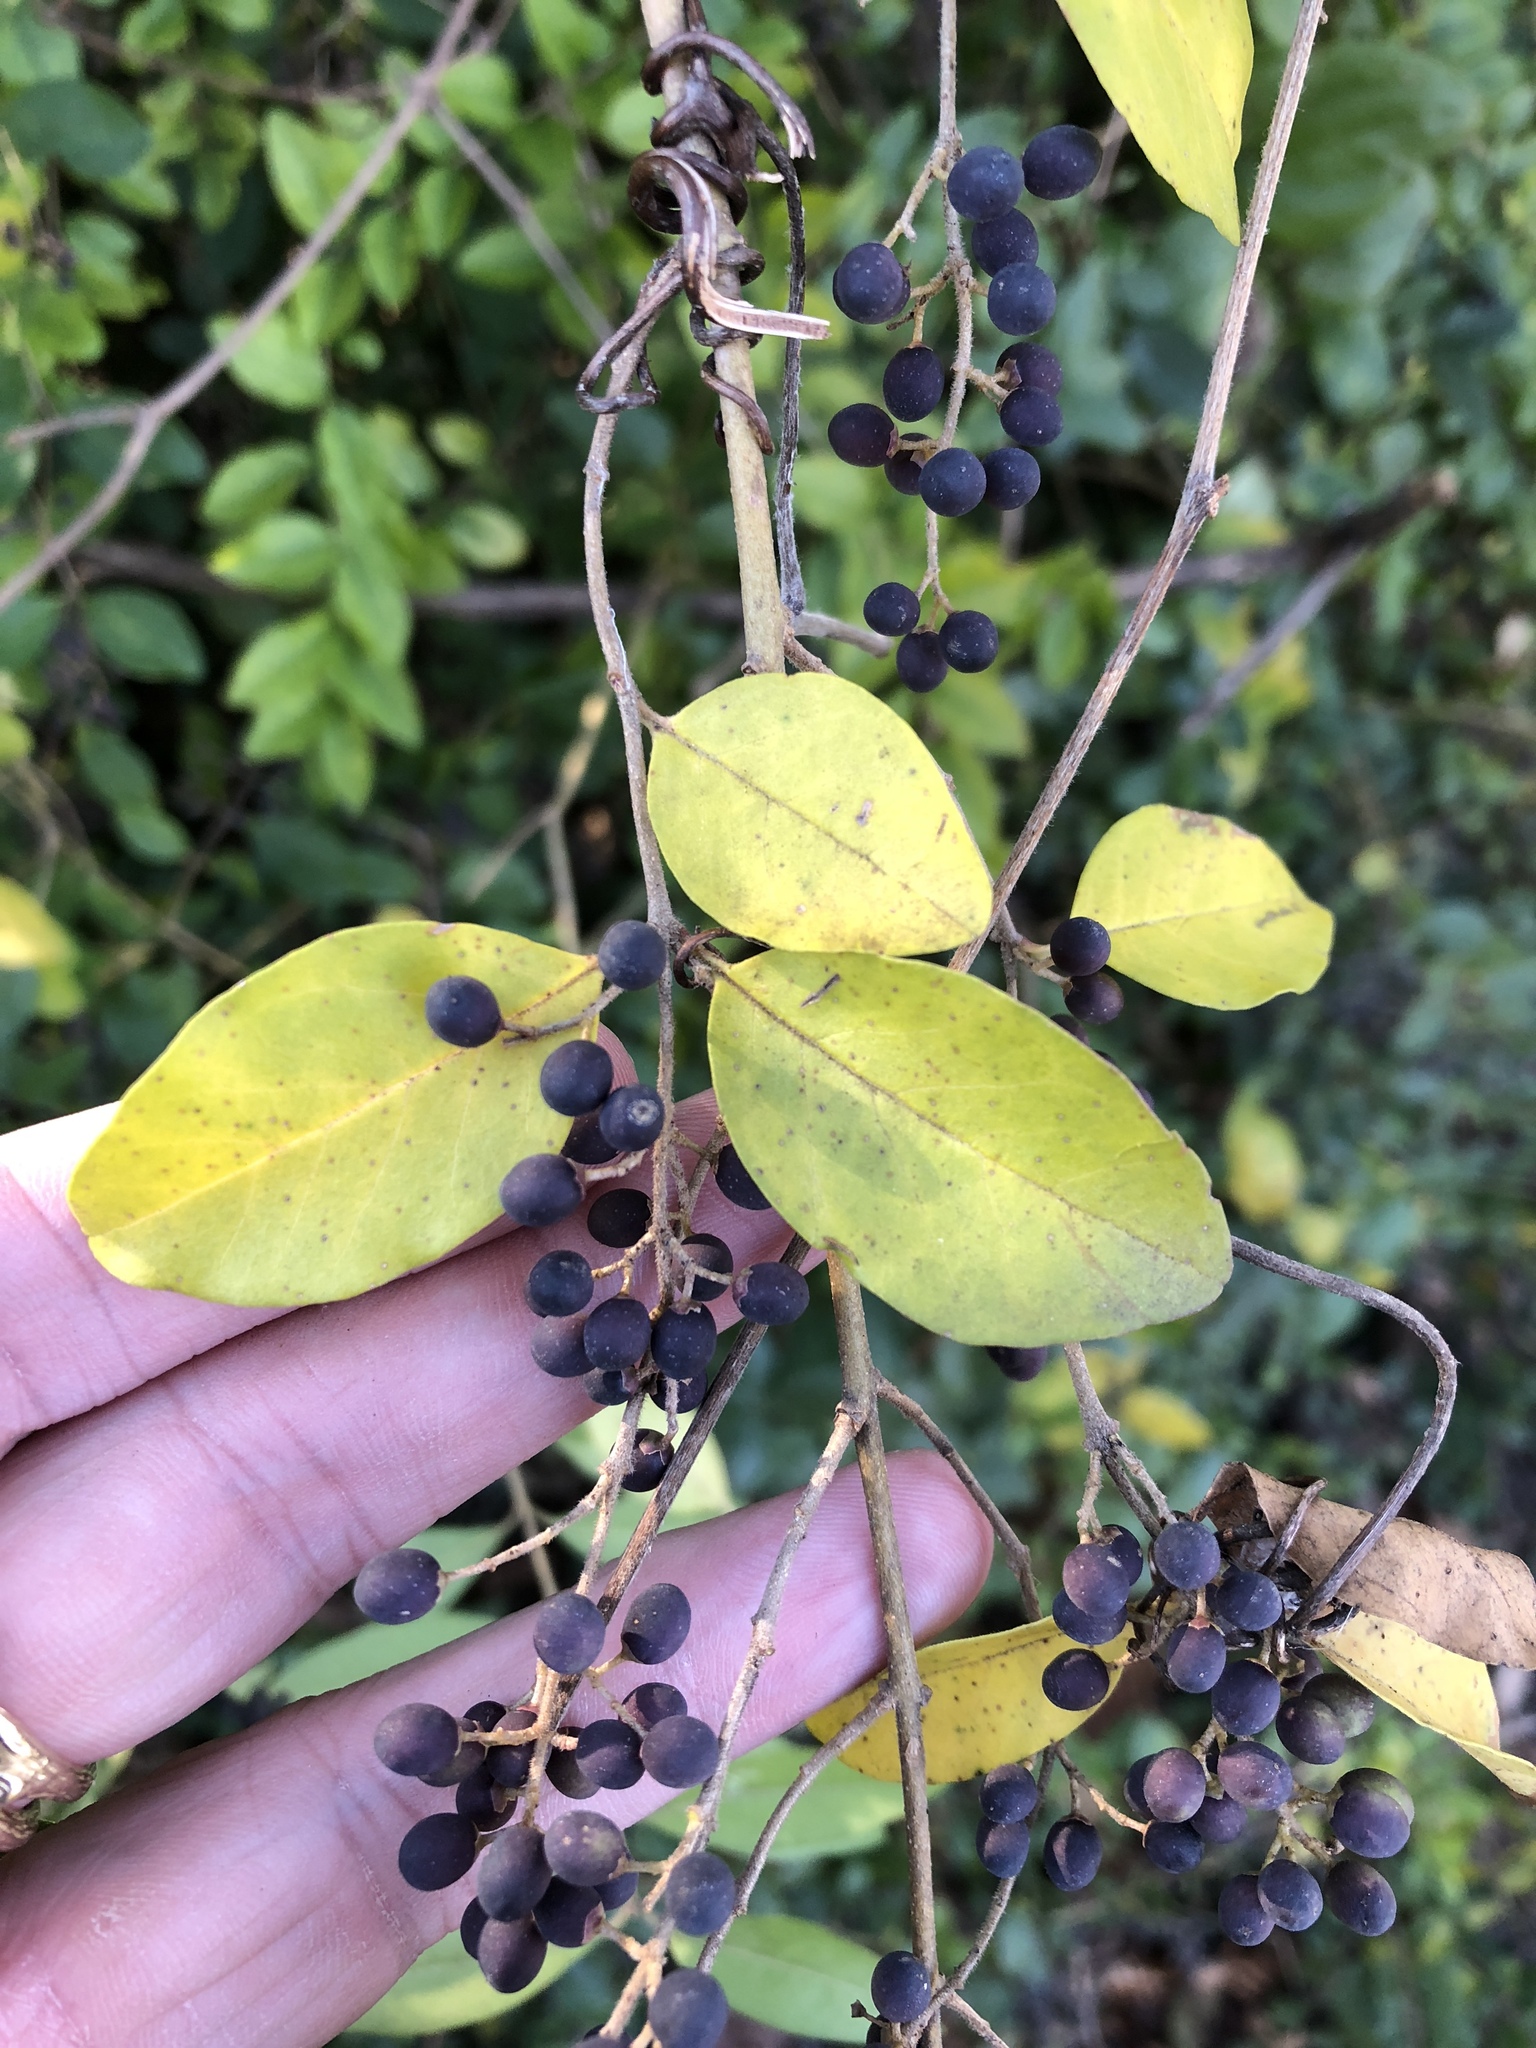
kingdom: Plantae
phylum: Tracheophyta
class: Magnoliopsida
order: Lamiales
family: Oleaceae
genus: Ligustrum
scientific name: Ligustrum sinense
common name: Chinese privet
